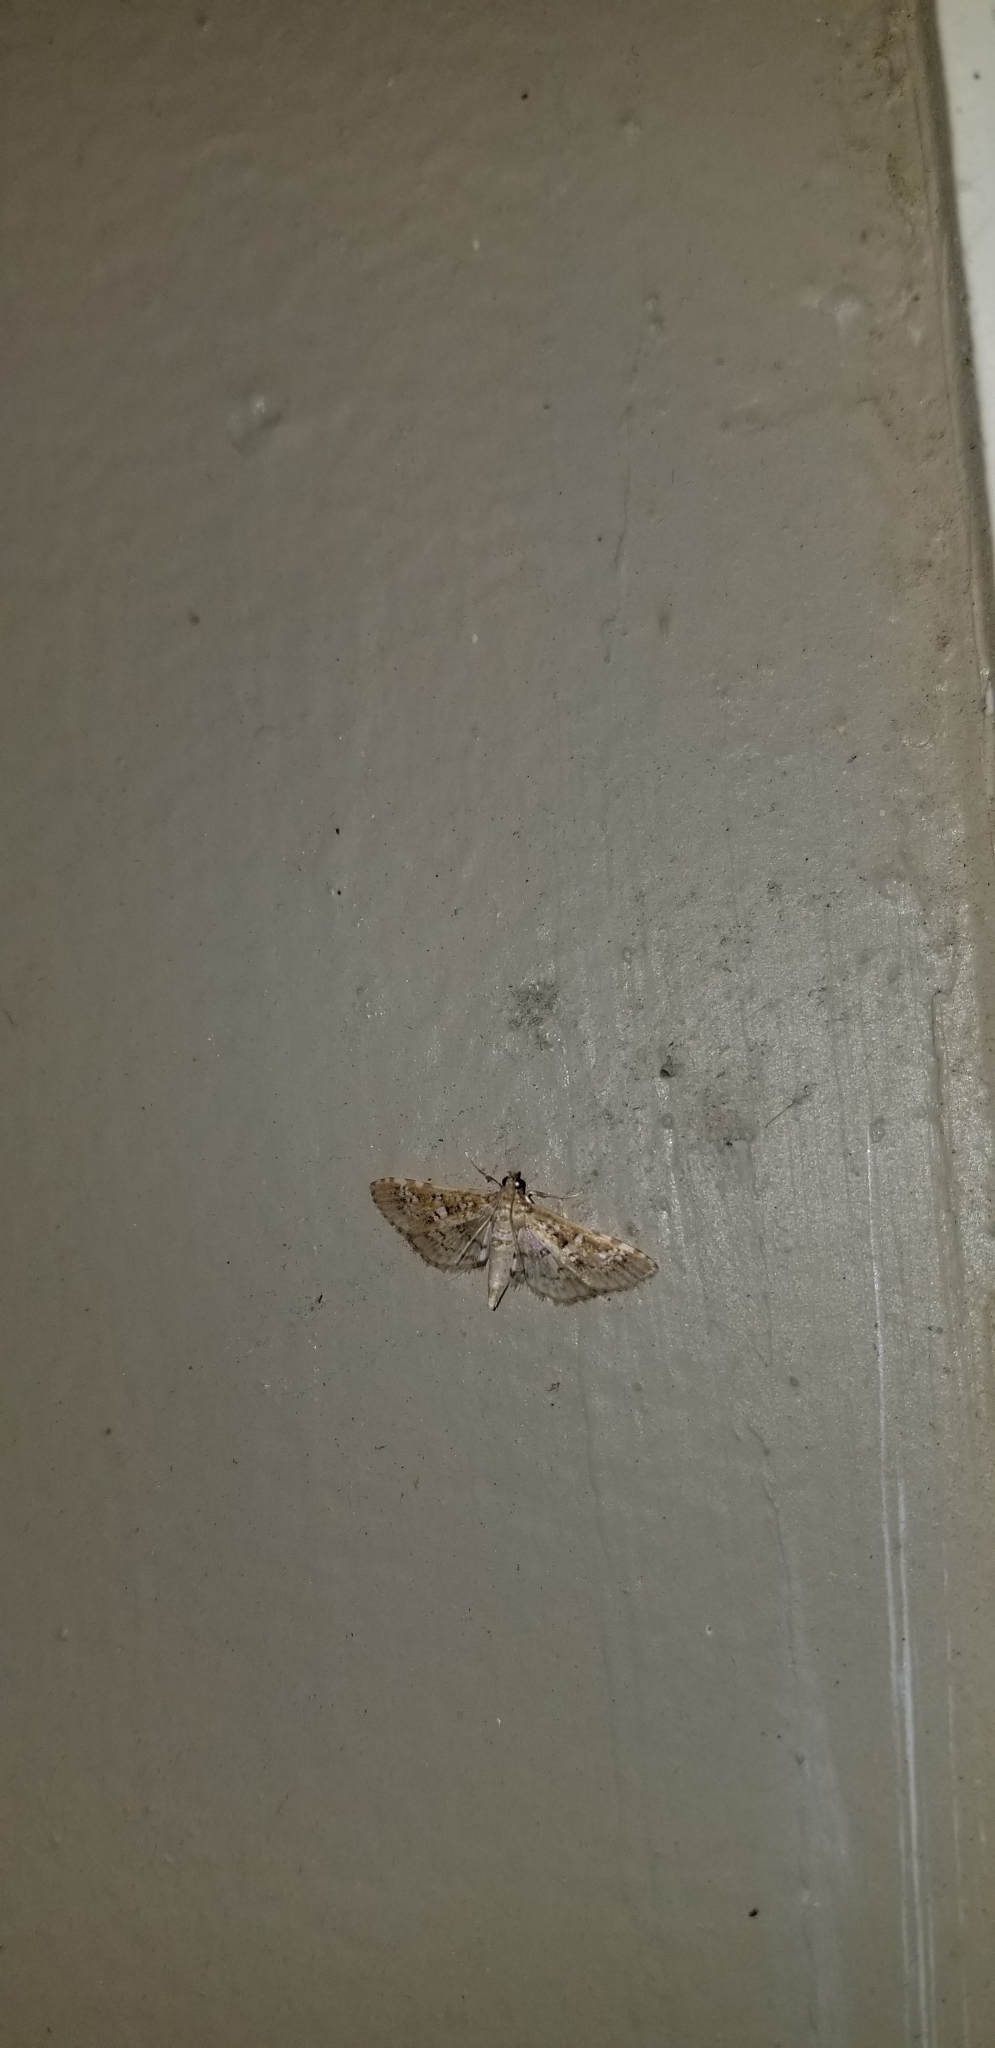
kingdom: Animalia
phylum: Arthropoda
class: Insecta
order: Lepidoptera
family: Crambidae
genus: Samea
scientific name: Samea multiplicalis
